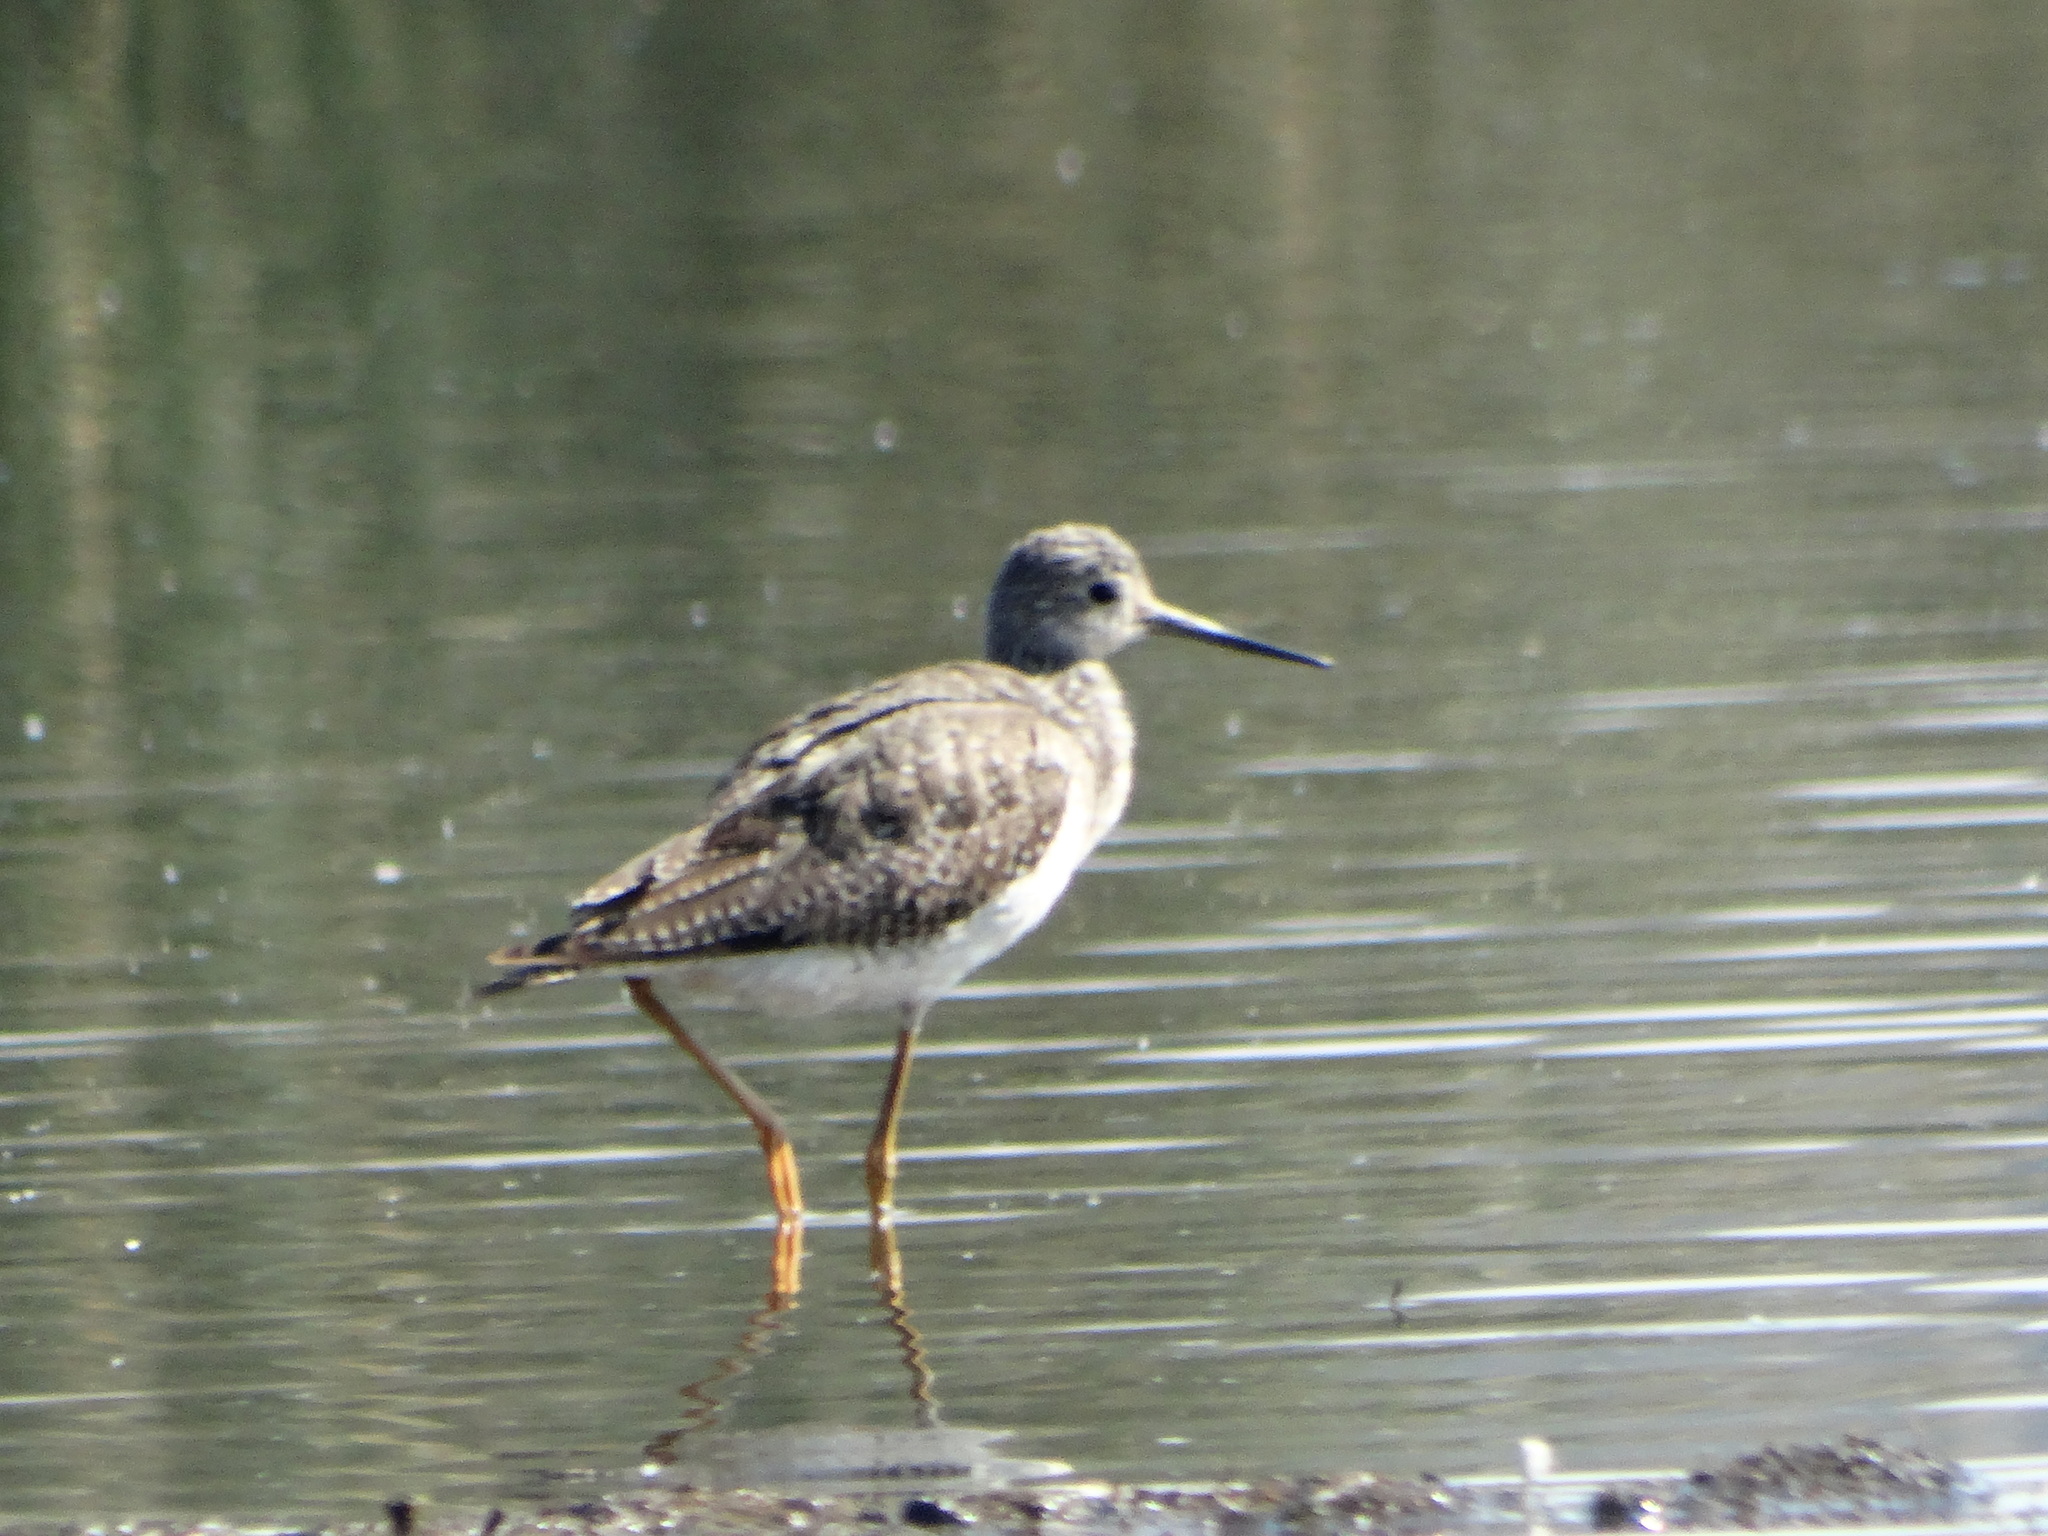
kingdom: Animalia
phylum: Chordata
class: Aves
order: Charadriiformes
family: Scolopacidae
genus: Tringa
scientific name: Tringa melanoleuca
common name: Greater yellowlegs
